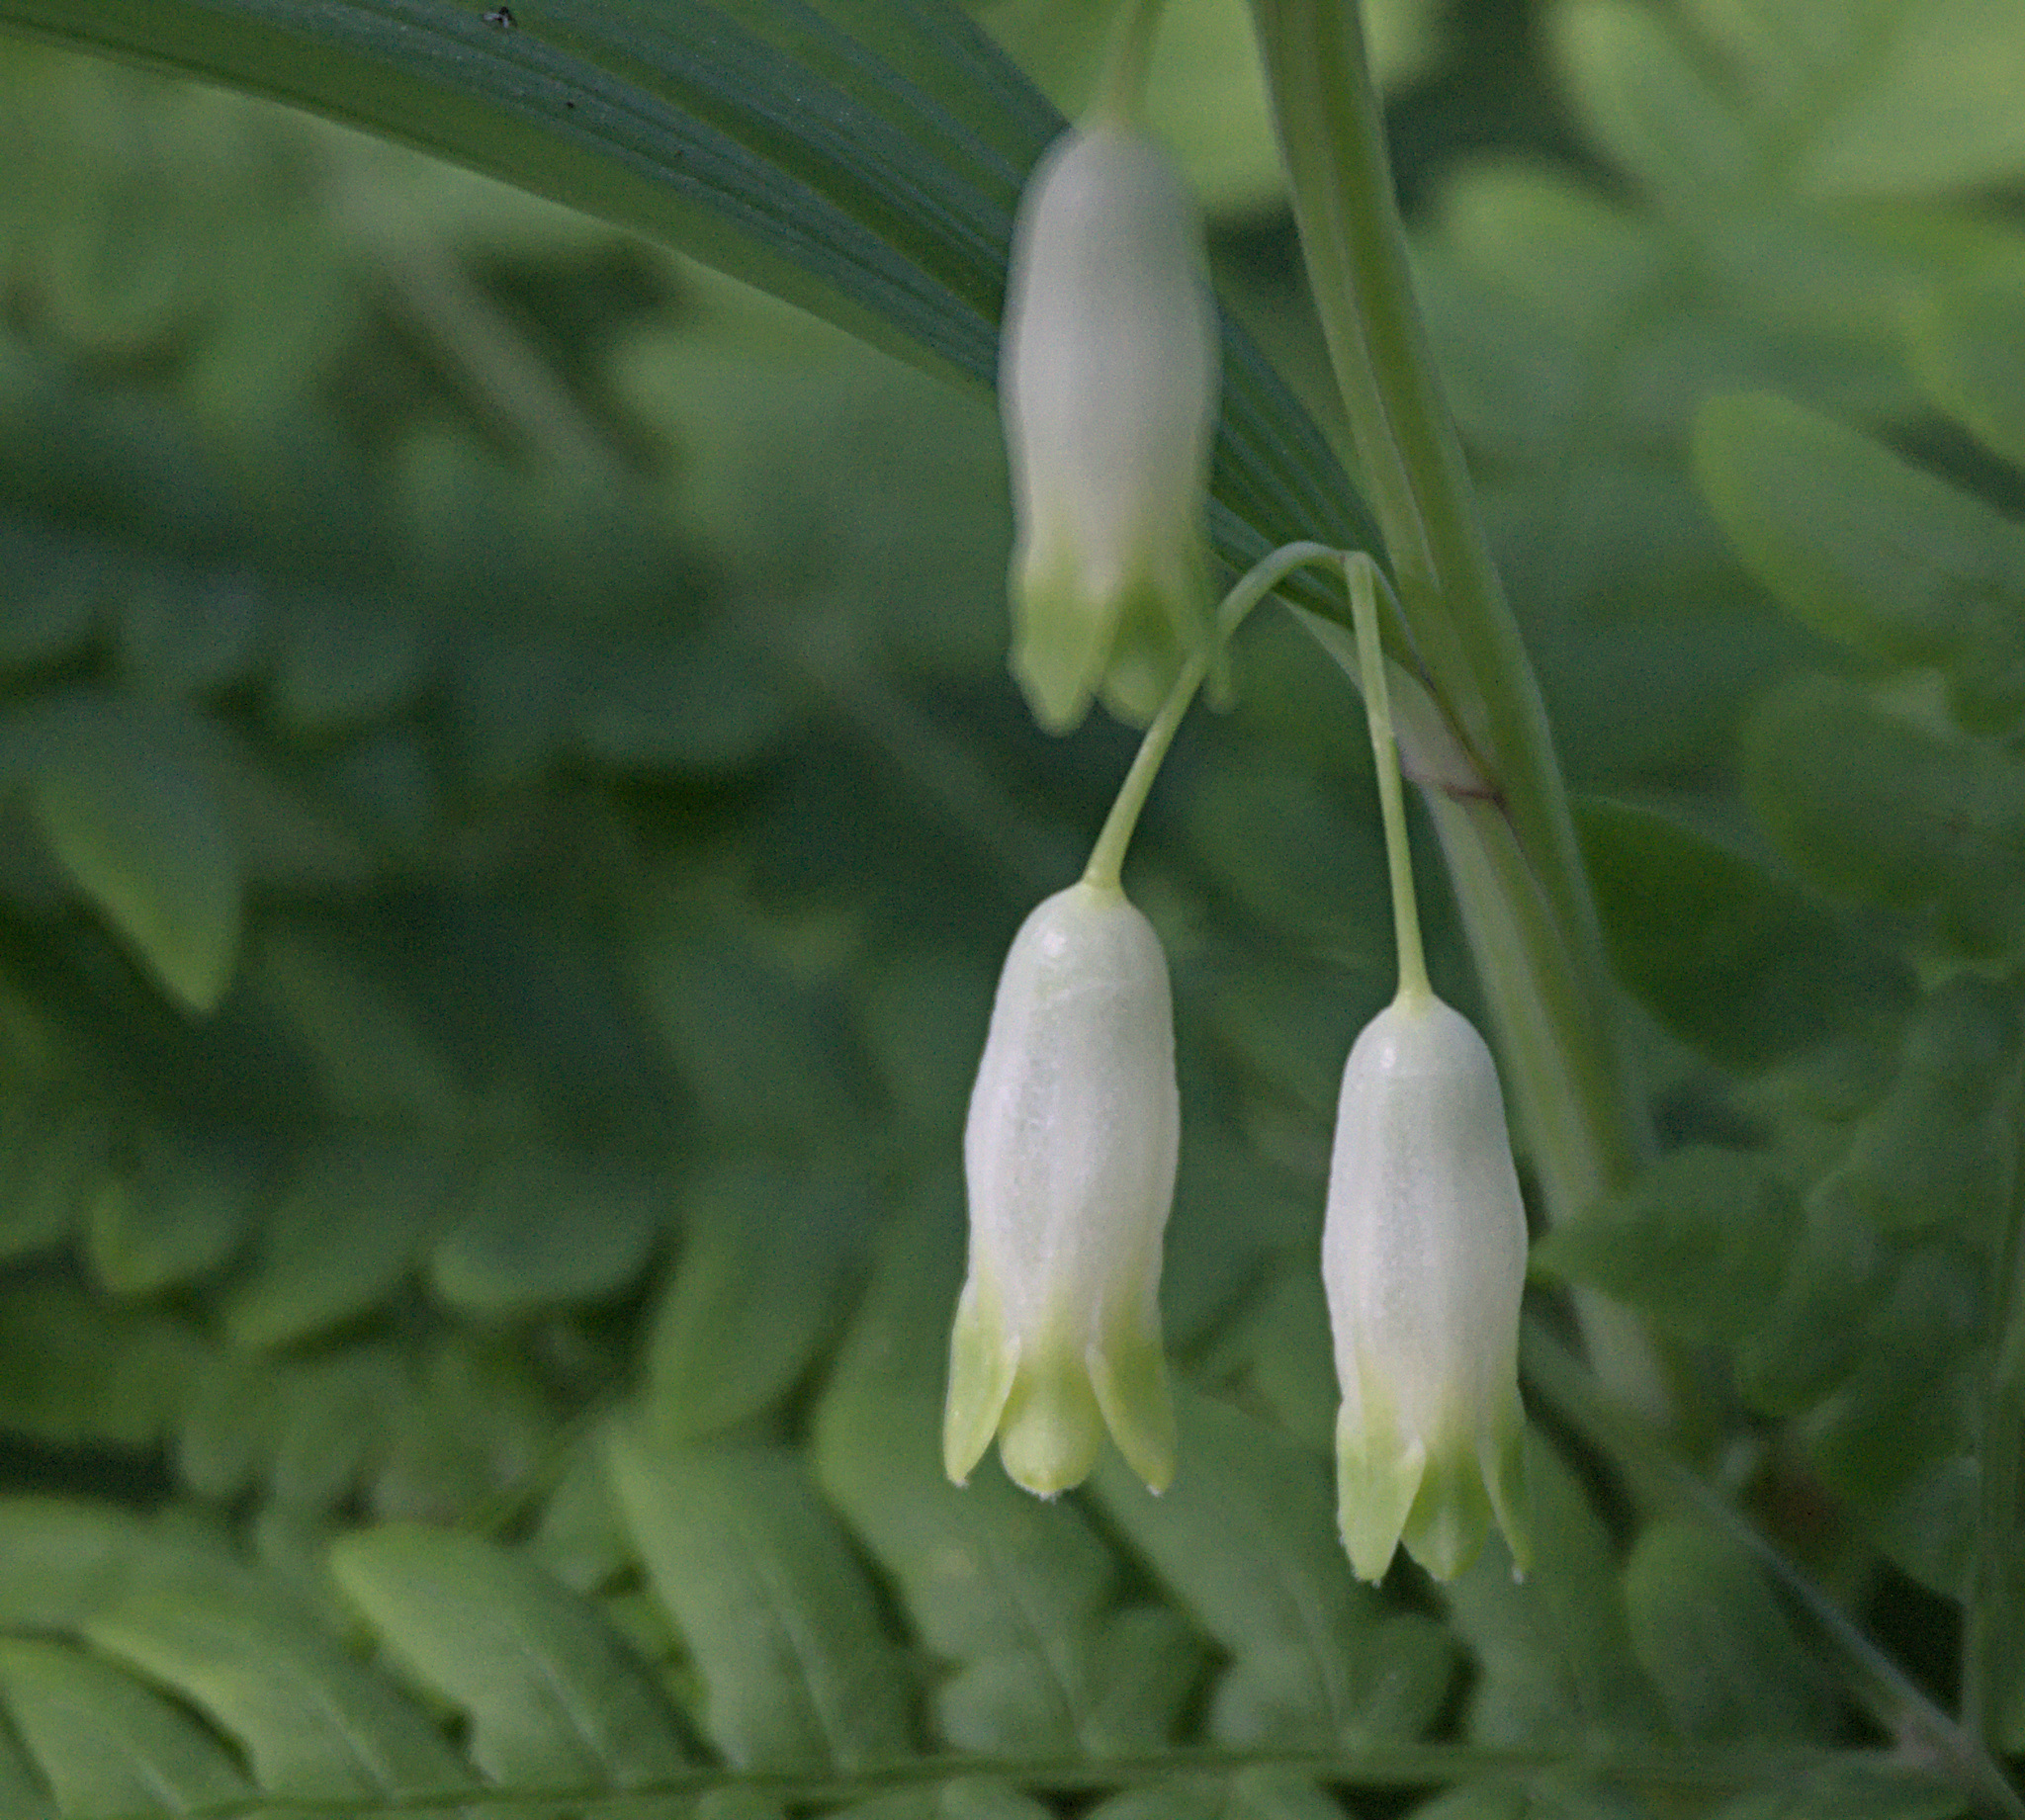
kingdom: Plantae
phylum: Tracheophyta
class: Liliopsida
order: Asparagales
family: Asparagaceae
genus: Polygonatum
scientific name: Polygonatum odoratum
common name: Angular solomon's-seal
